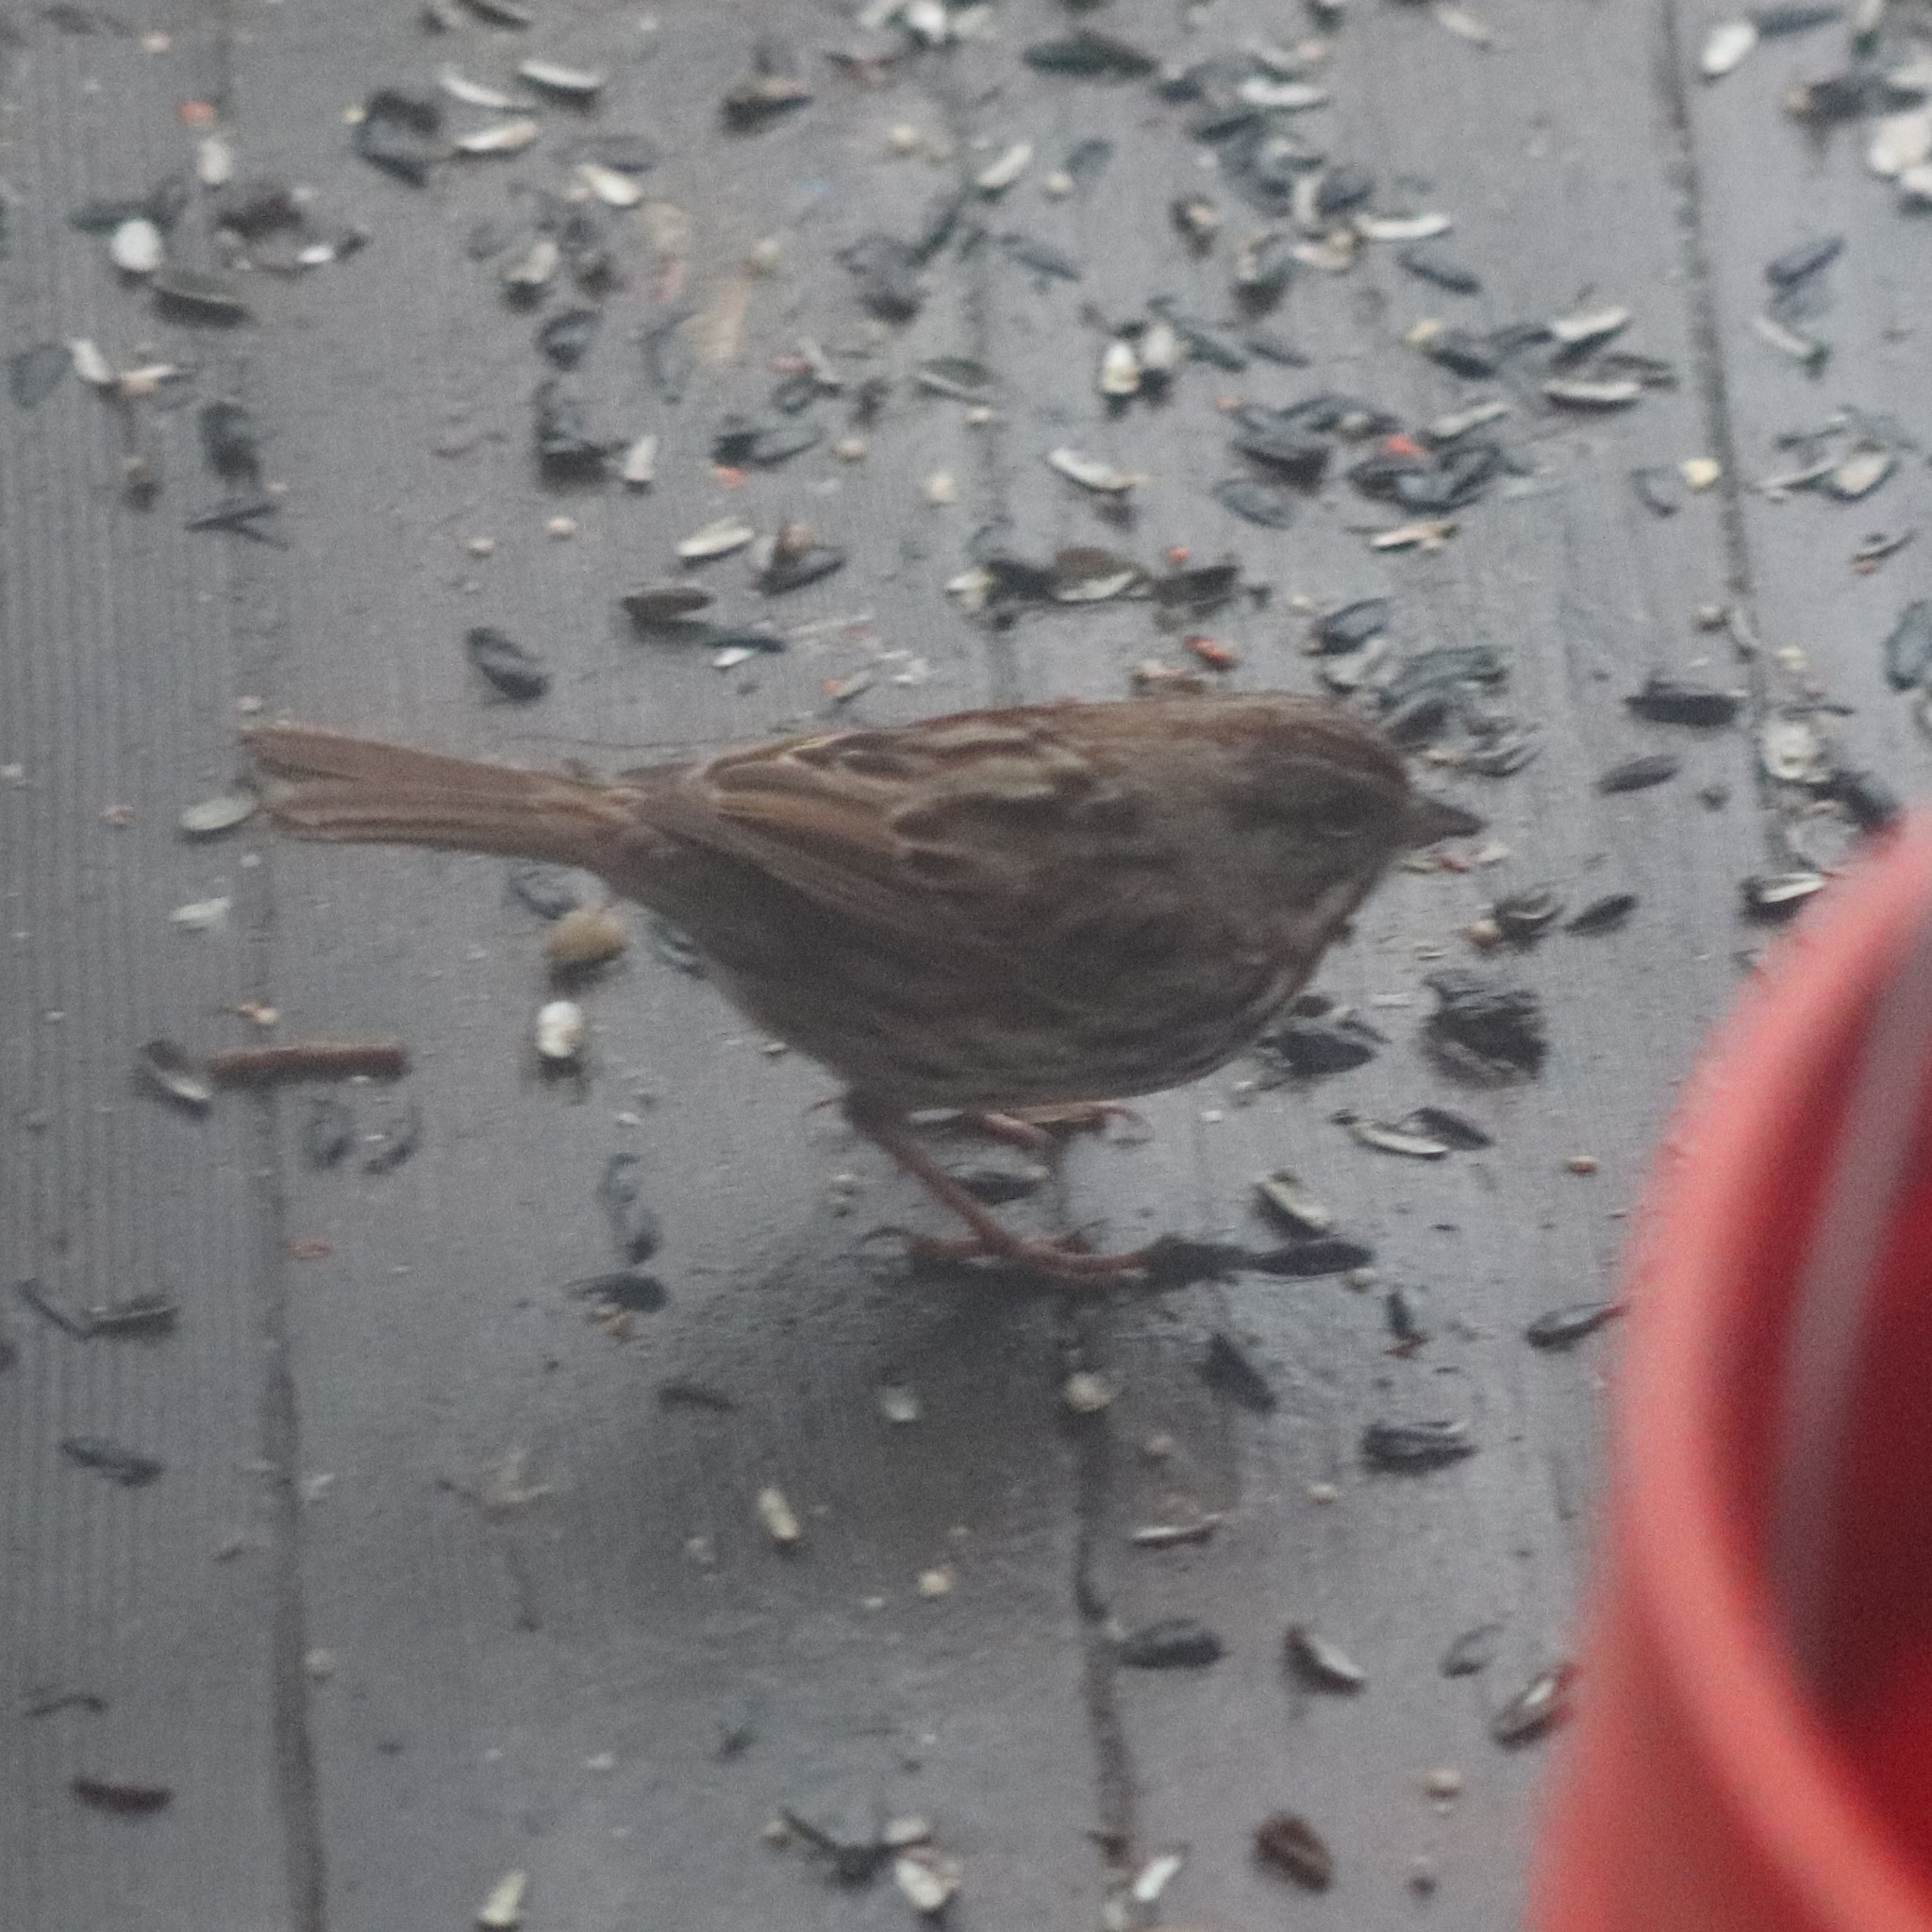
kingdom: Animalia
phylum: Chordata
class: Aves
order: Passeriformes
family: Passerellidae
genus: Melospiza
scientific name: Melospiza melodia
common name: Song sparrow
